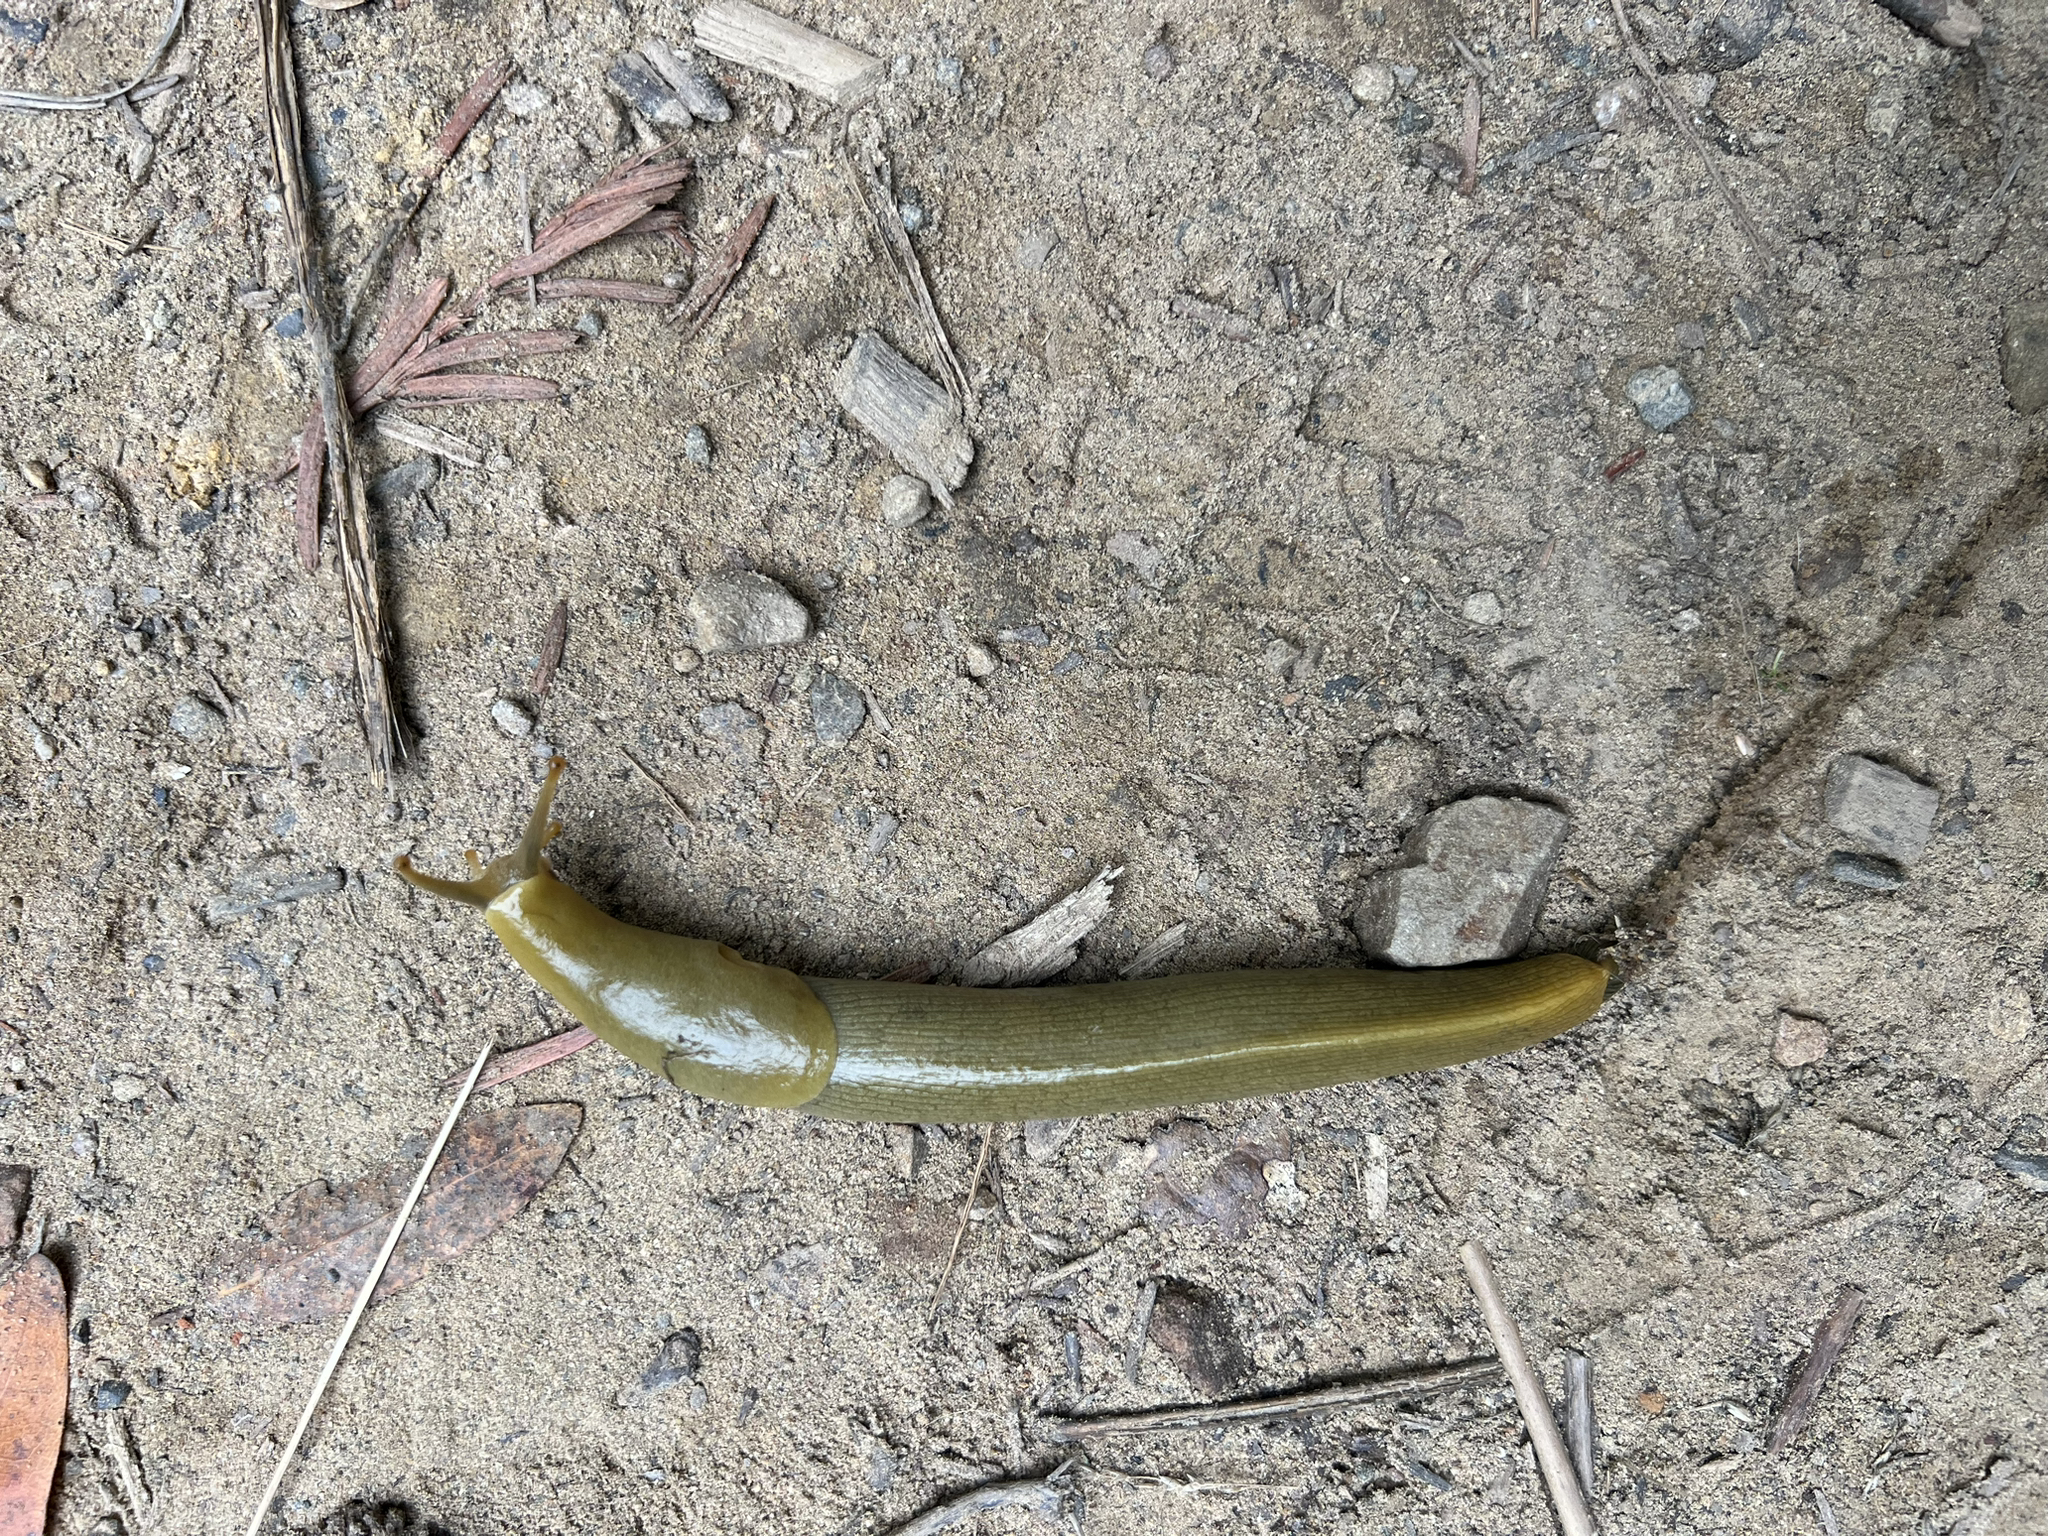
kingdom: Animalia
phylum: Mollusca
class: Gastropoda
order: Stylommatophora
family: Ariolimacidae
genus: Ariolimax
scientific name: Ariolimax buttoni
